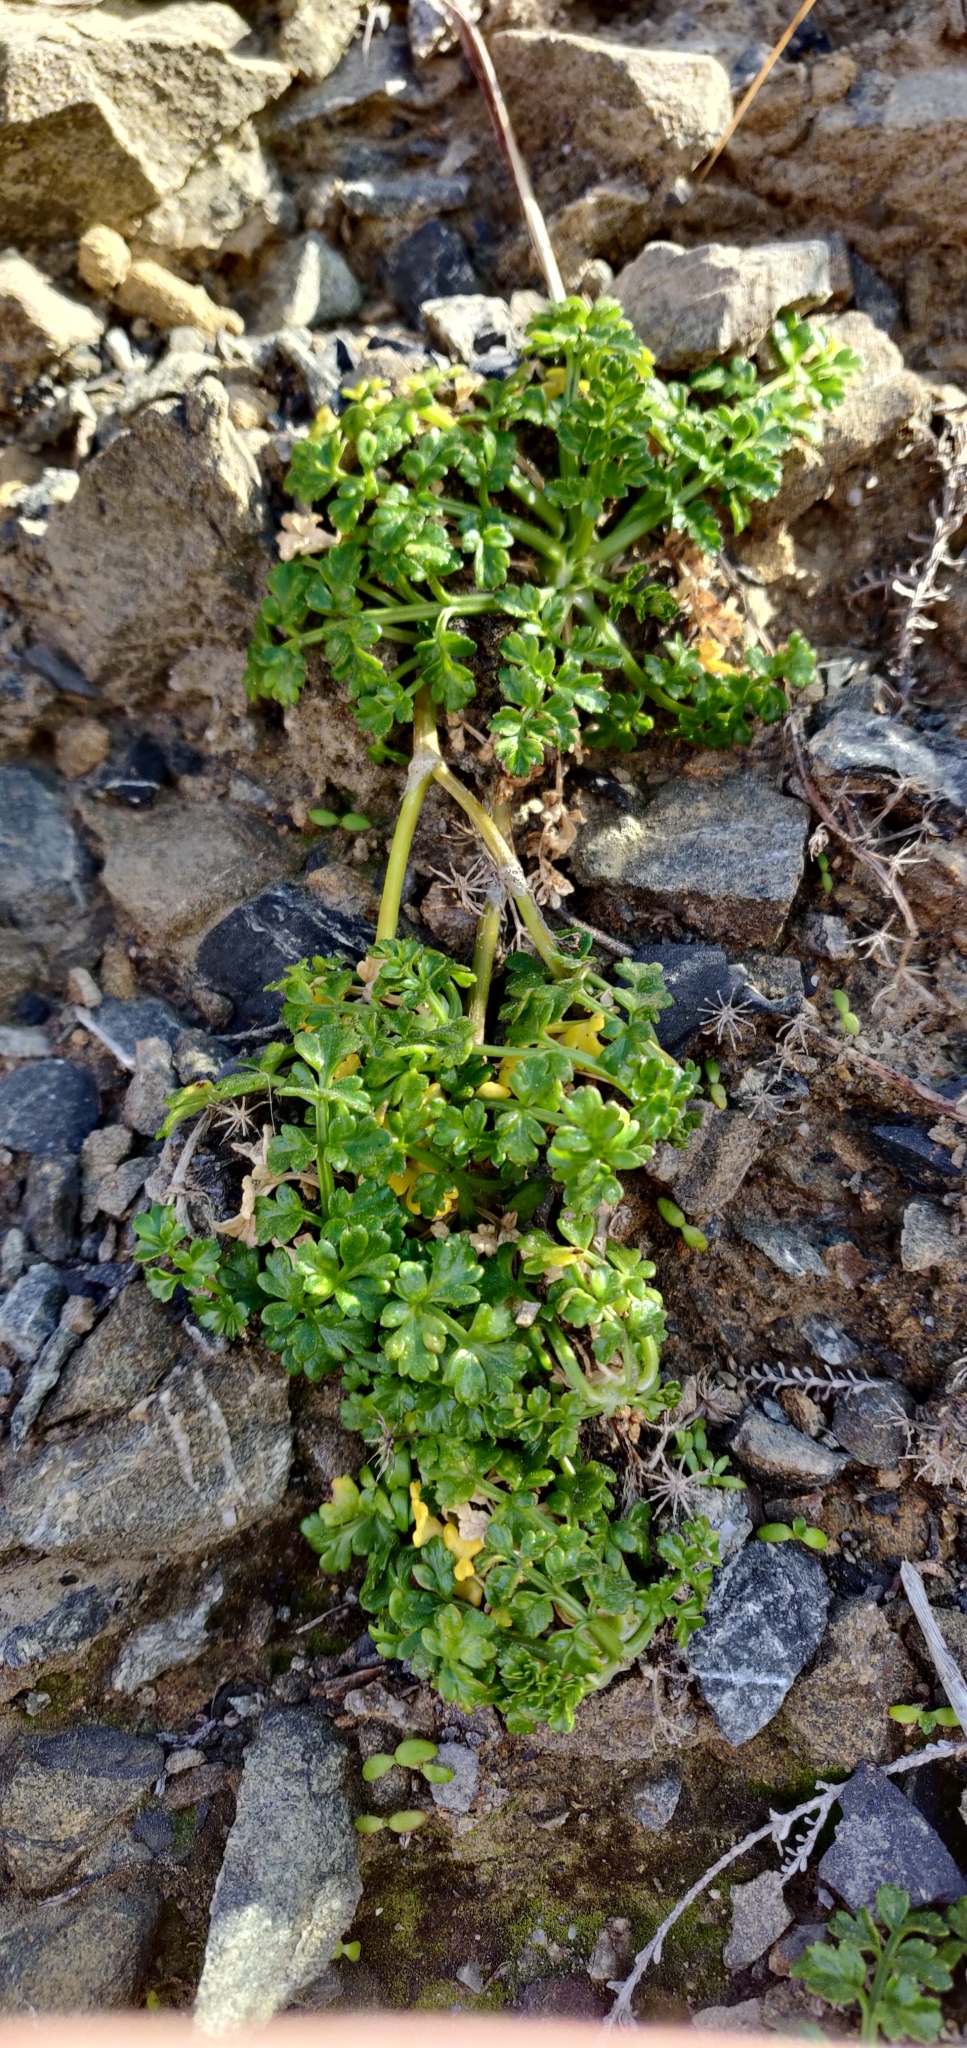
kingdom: Plantae
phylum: Tracheophyta
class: Magnoliopsida
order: Apiales
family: Apiaceae
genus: Apium
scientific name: Apium prostratum
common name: Prostrate marshwort
